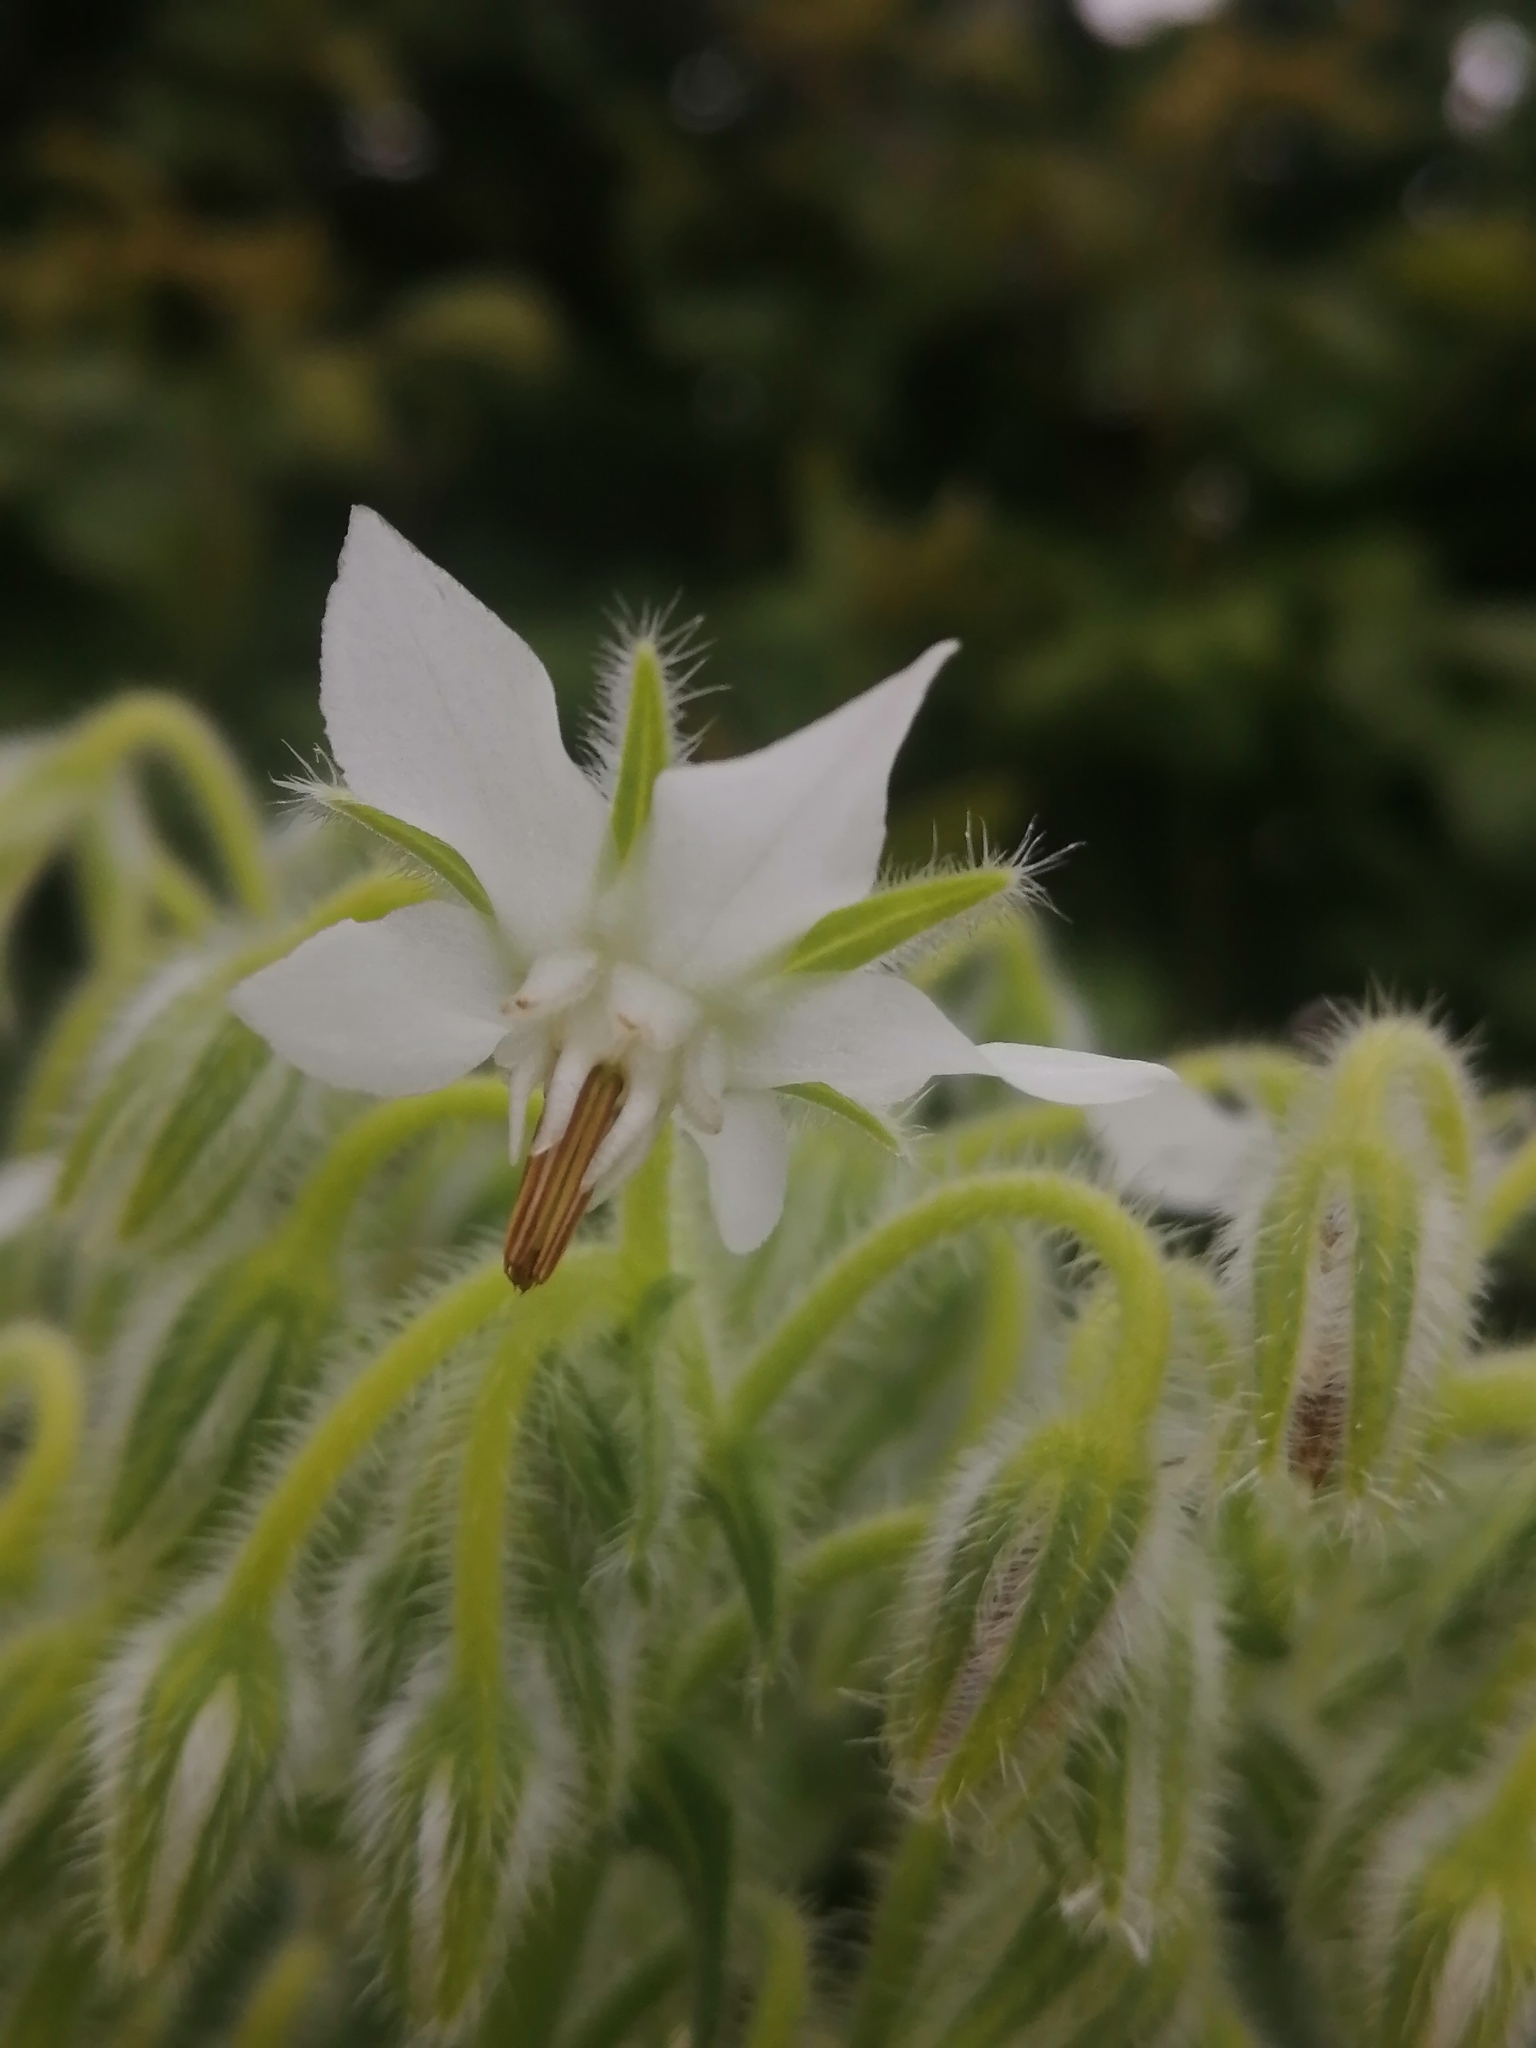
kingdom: Plantae
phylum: Tracheophyta
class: Magnoliopsida
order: Boraginales
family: Boraginaceae
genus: Borago
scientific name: Borago officinalis
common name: Borage
